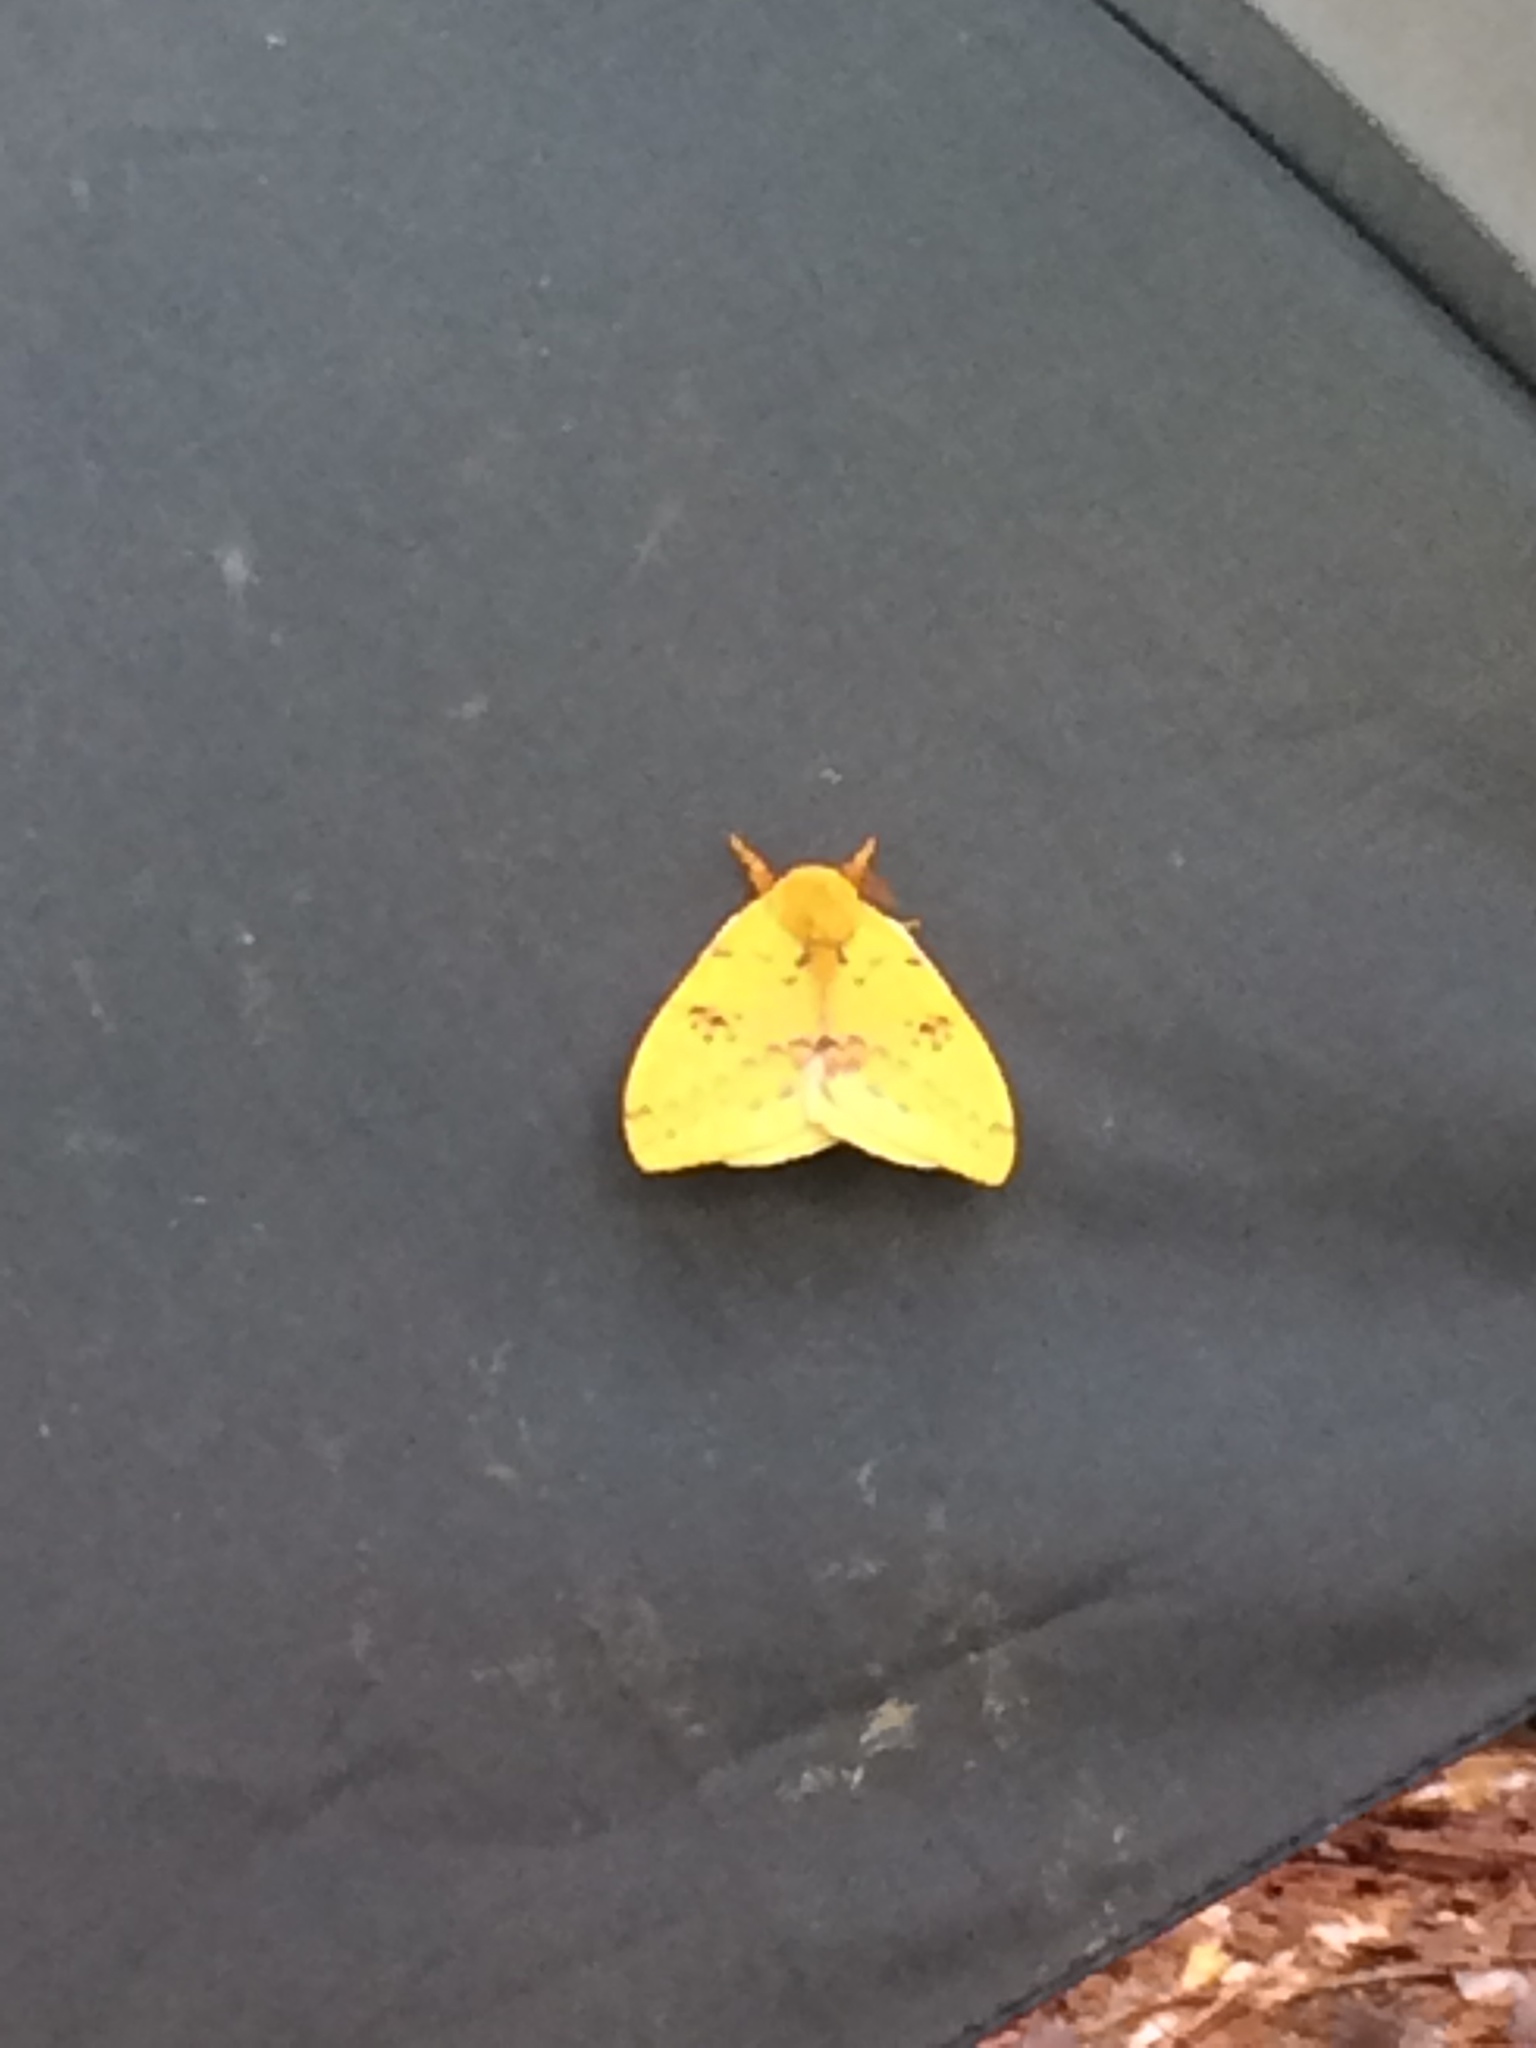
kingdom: Animalia
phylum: Arthropoda
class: Insecta
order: Lepidoptera
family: Saturniidae
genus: Automeris
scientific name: Automeris io
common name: Io moth
